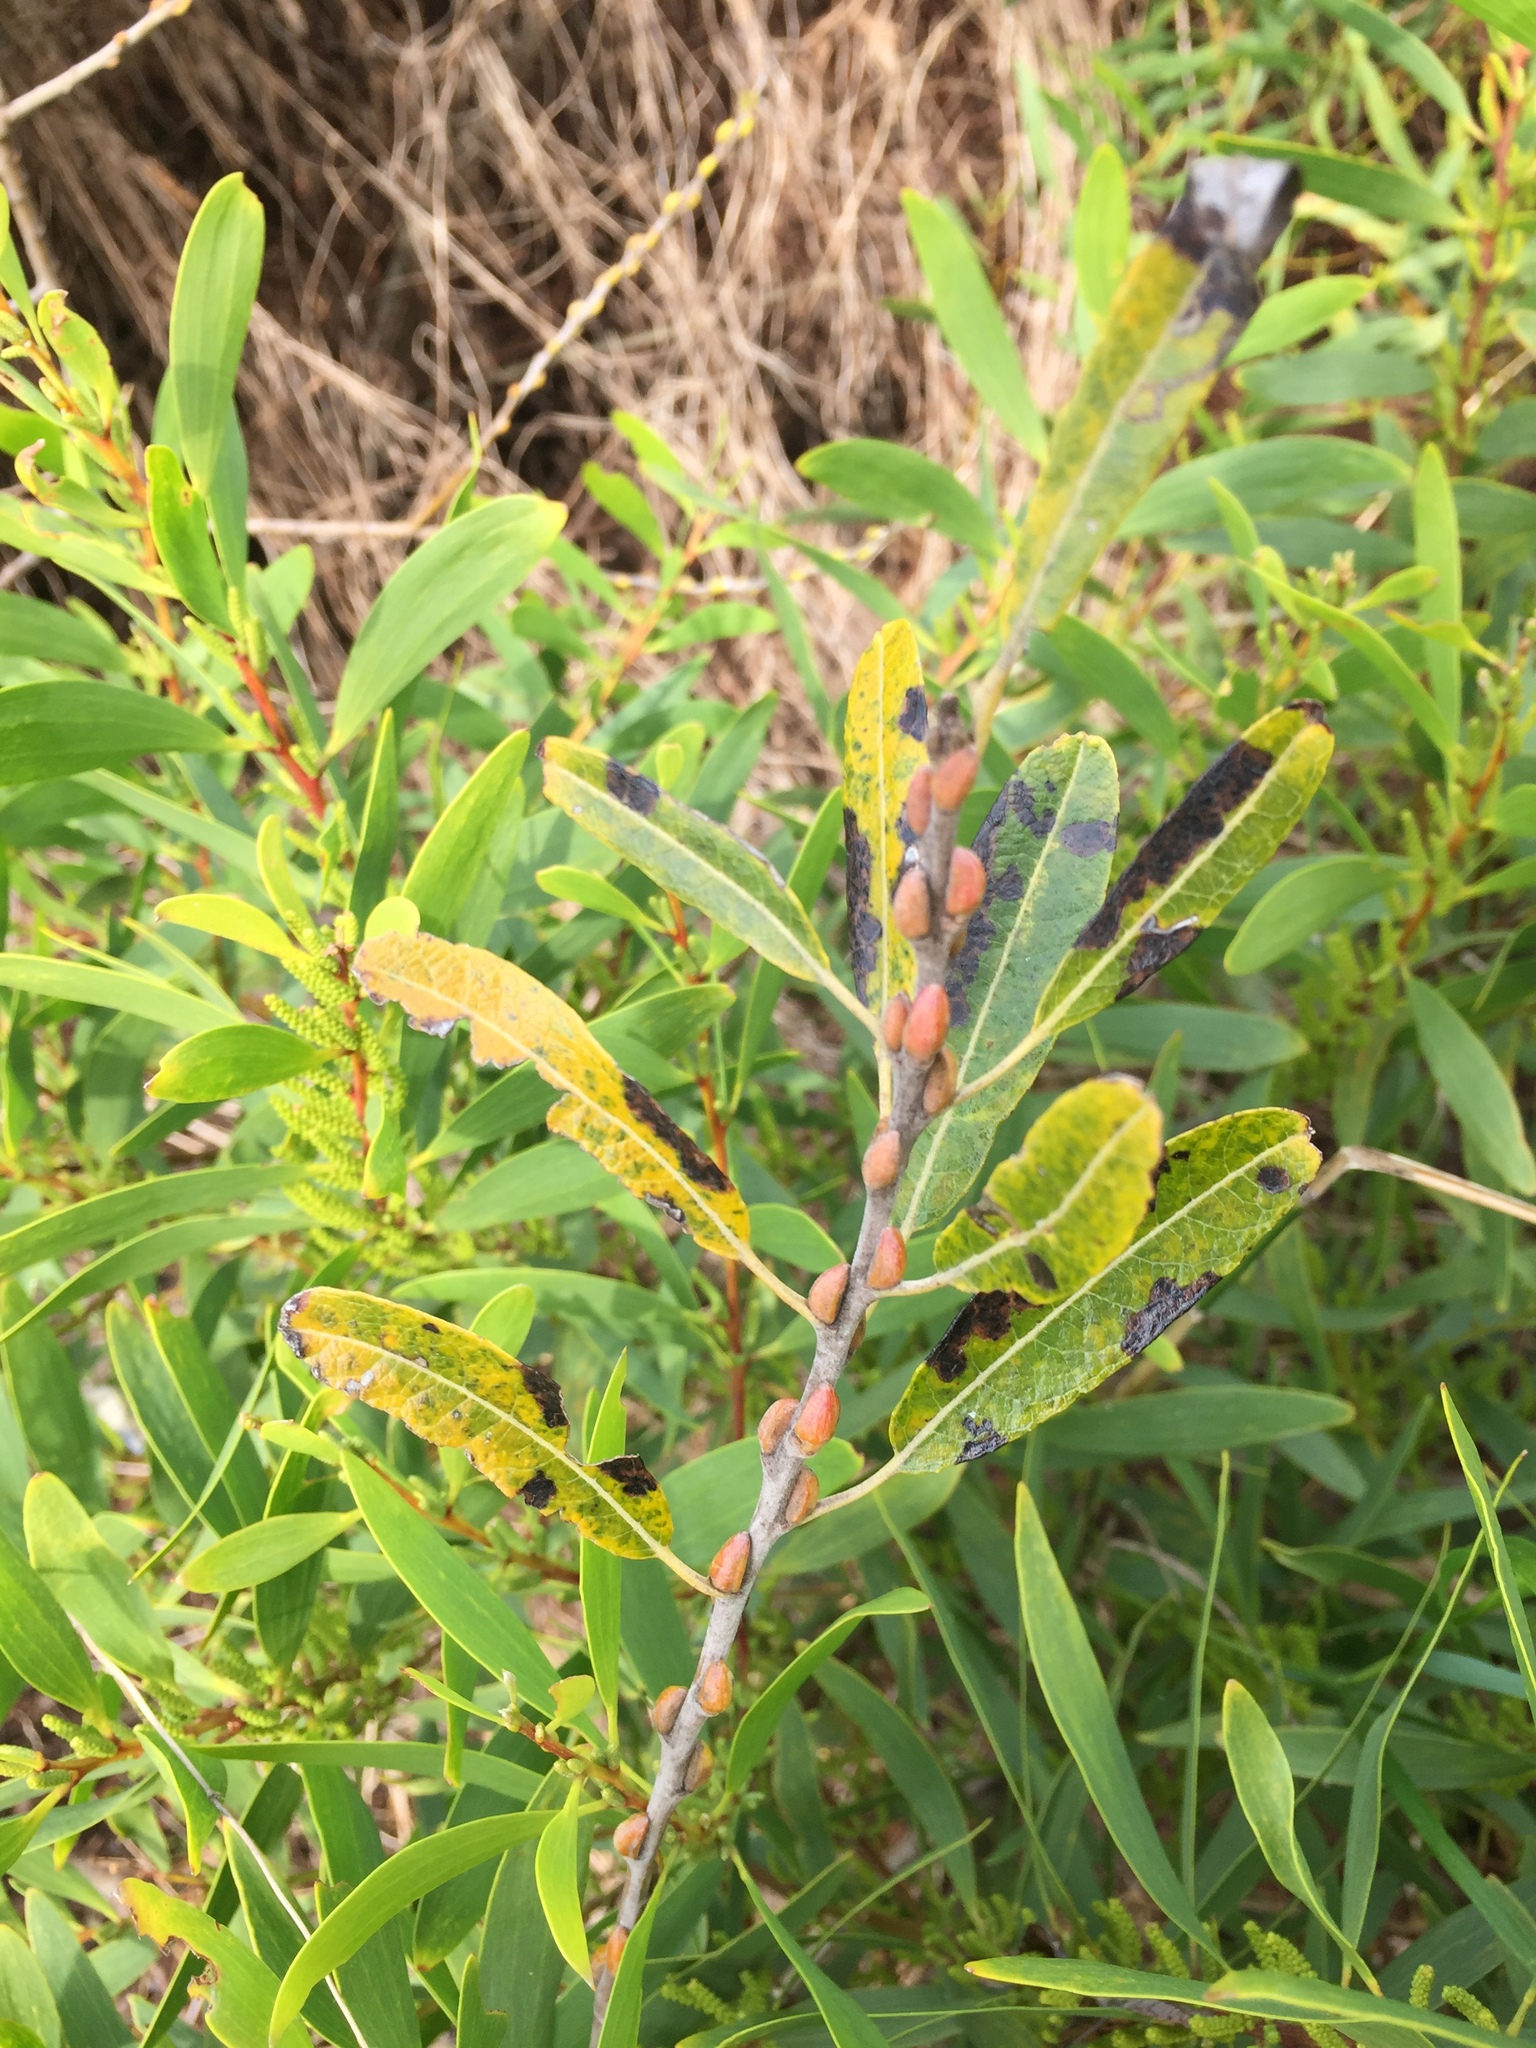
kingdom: Plantae
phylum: Tracheophyta
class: Magnoliopsida
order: Fabales
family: Fabaceae
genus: Acacia
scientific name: Acacia longifolia
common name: Sydney golden wattle
